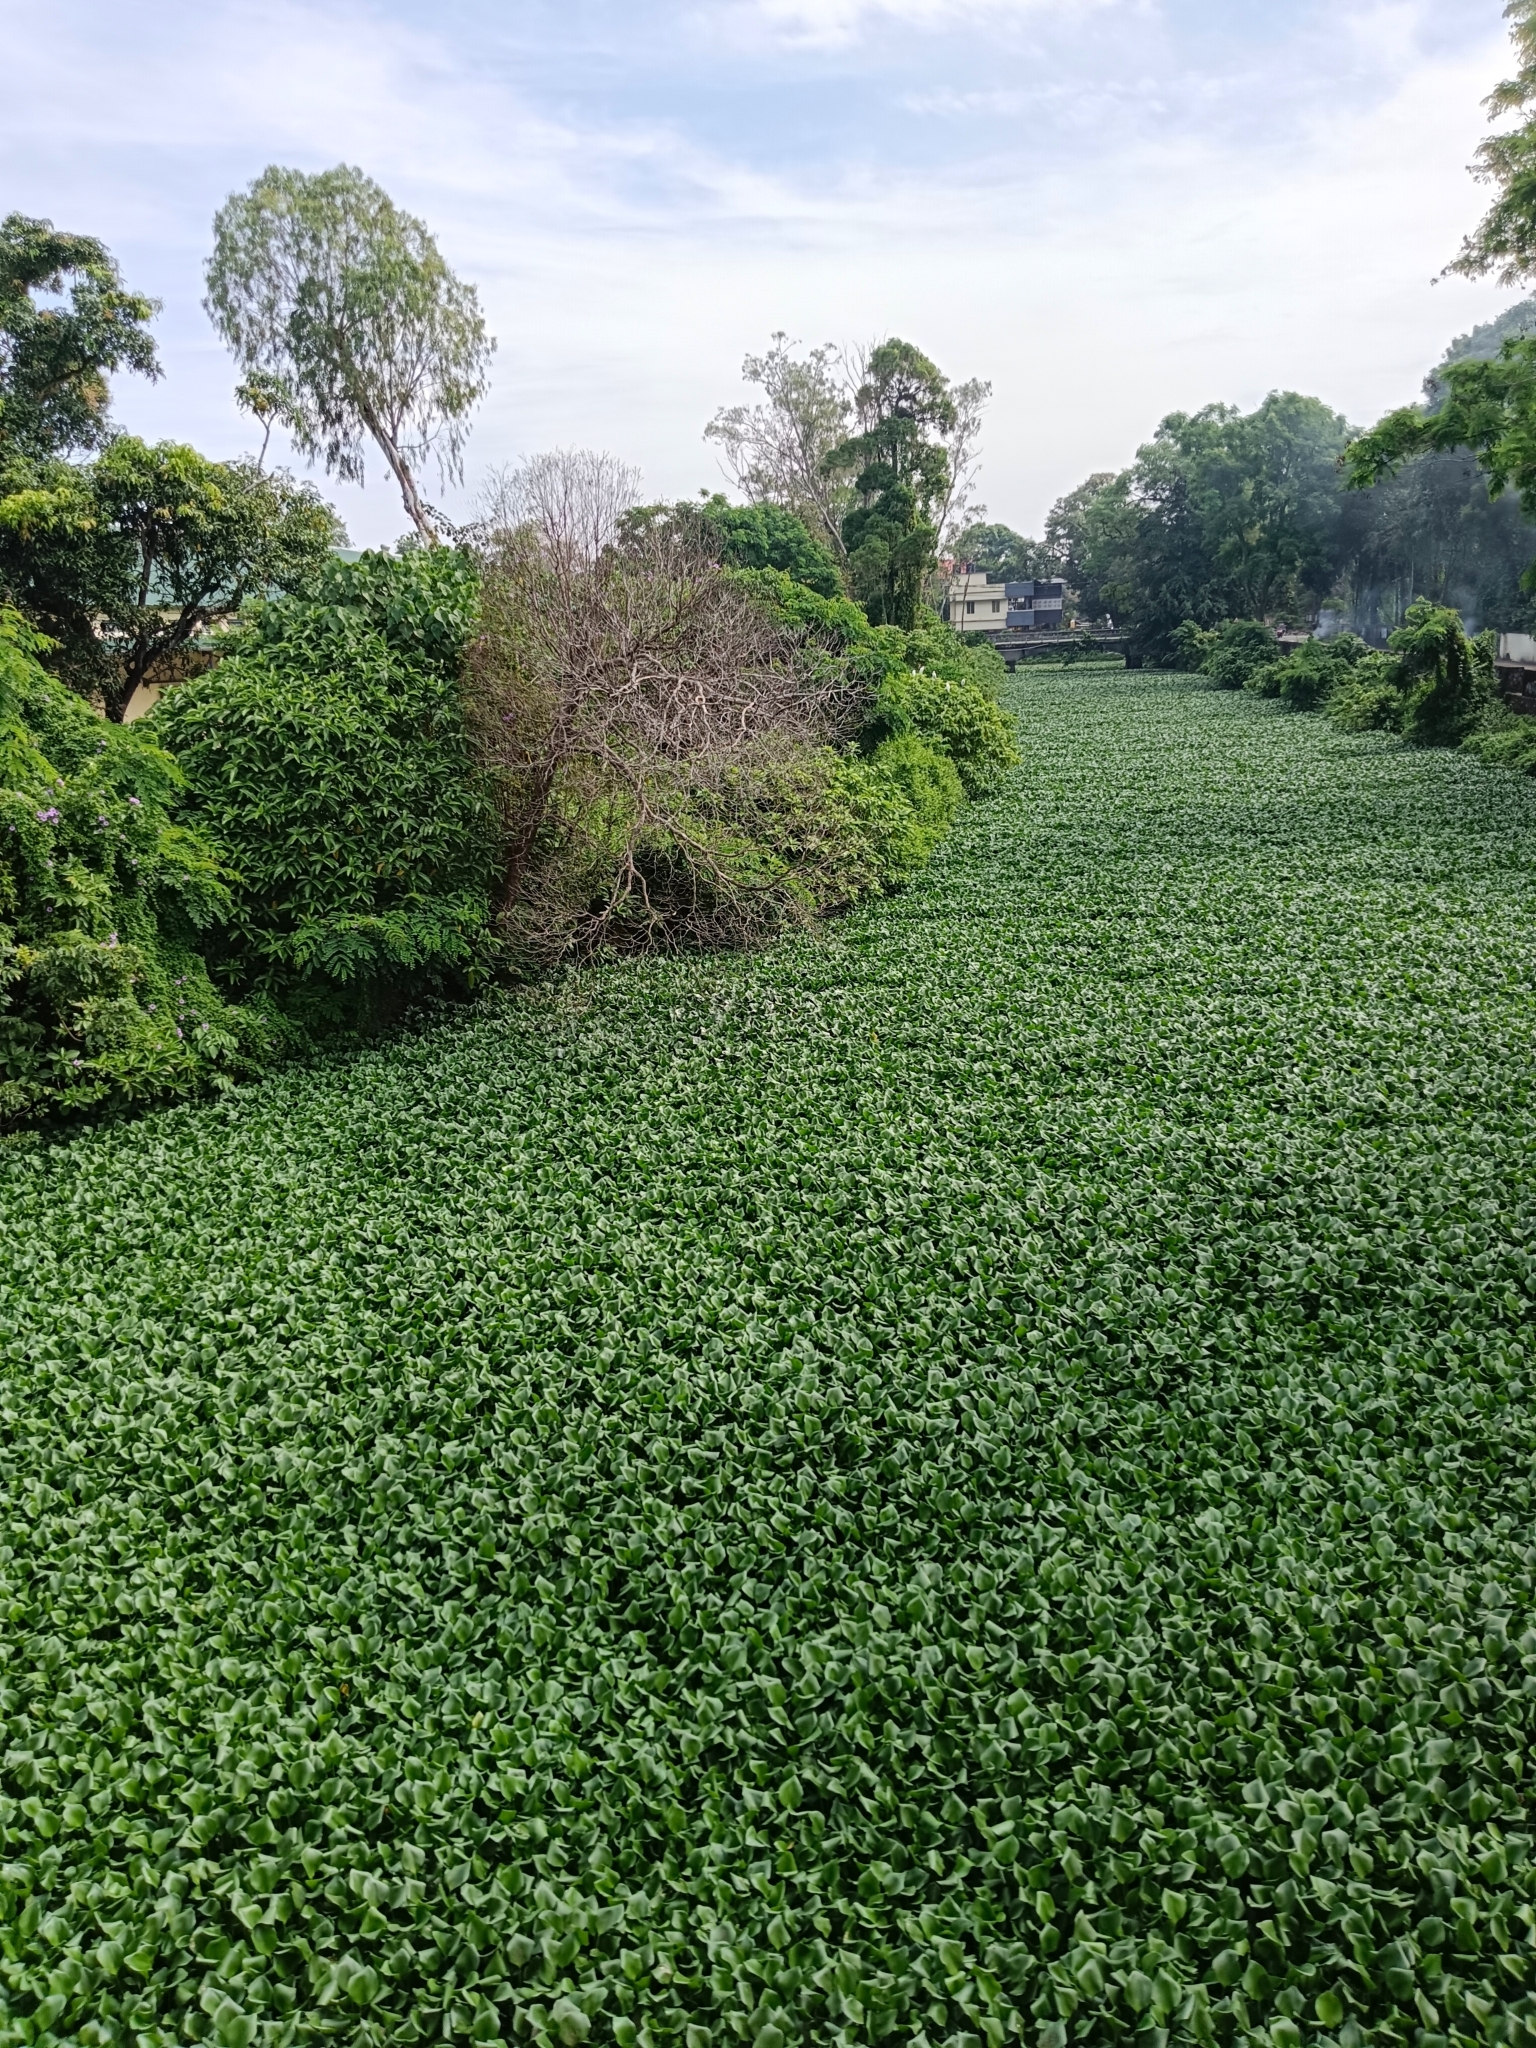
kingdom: Plantae
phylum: Tracheophyta
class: Liliopsida
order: Commelinales
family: Pontederiaceae
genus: Pontederia
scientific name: Pontederia crassipes
